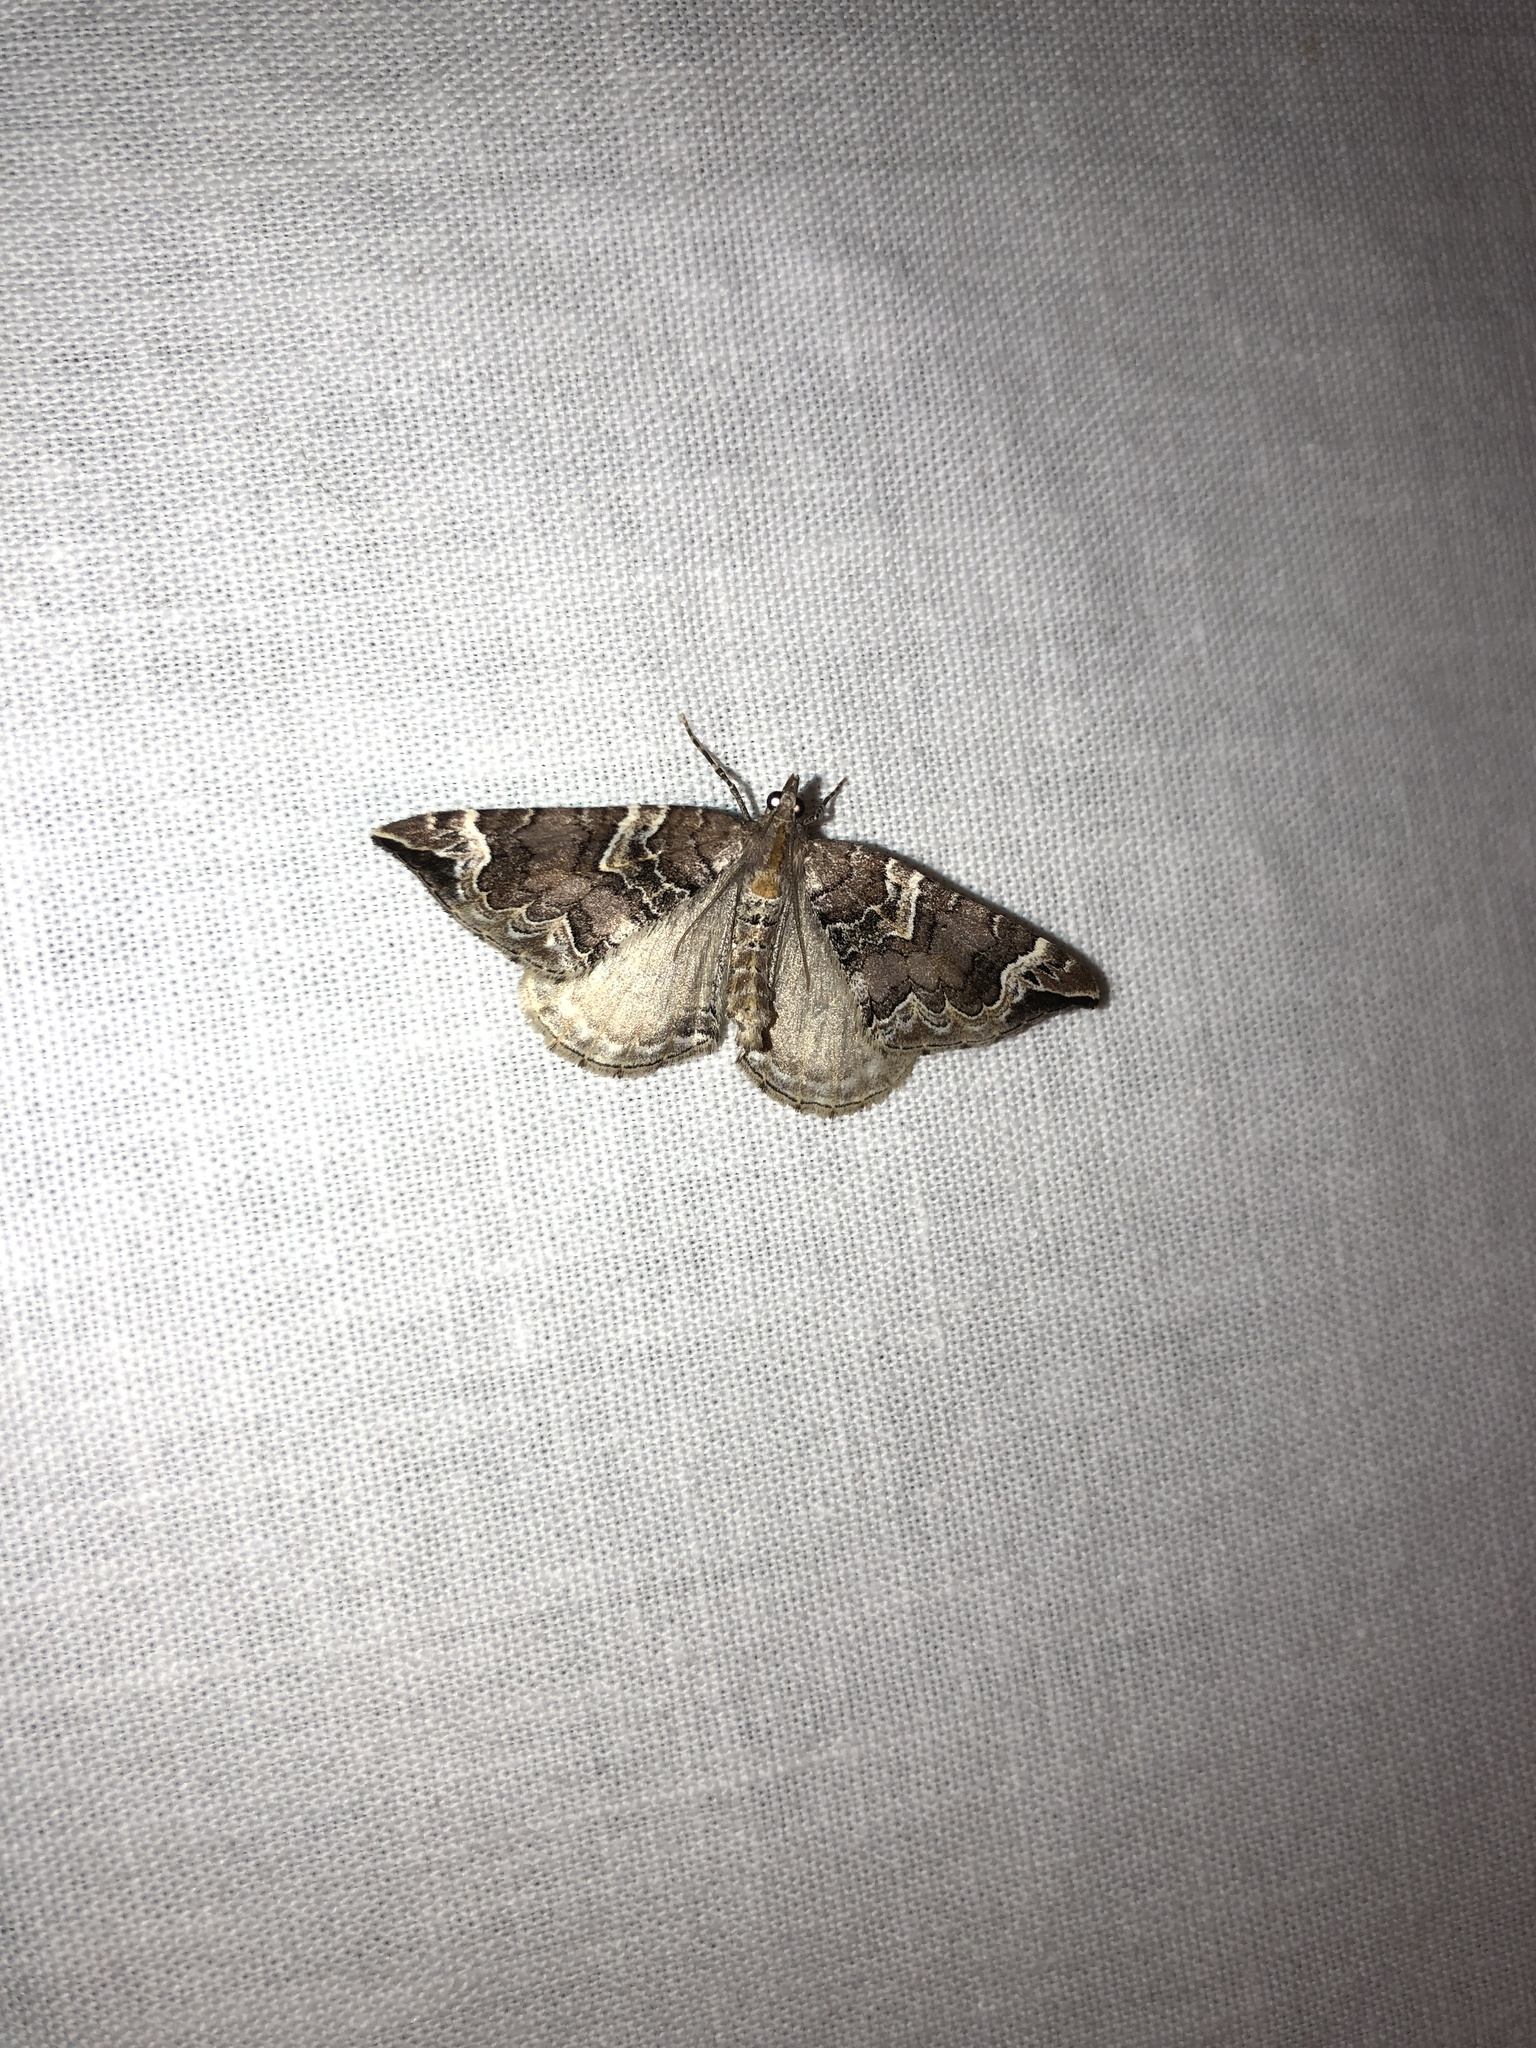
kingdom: Animalia
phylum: Arthropoda
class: Insecta
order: Lepidoptera
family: Geometridae
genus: Eulithis
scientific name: Eulithis xylina
